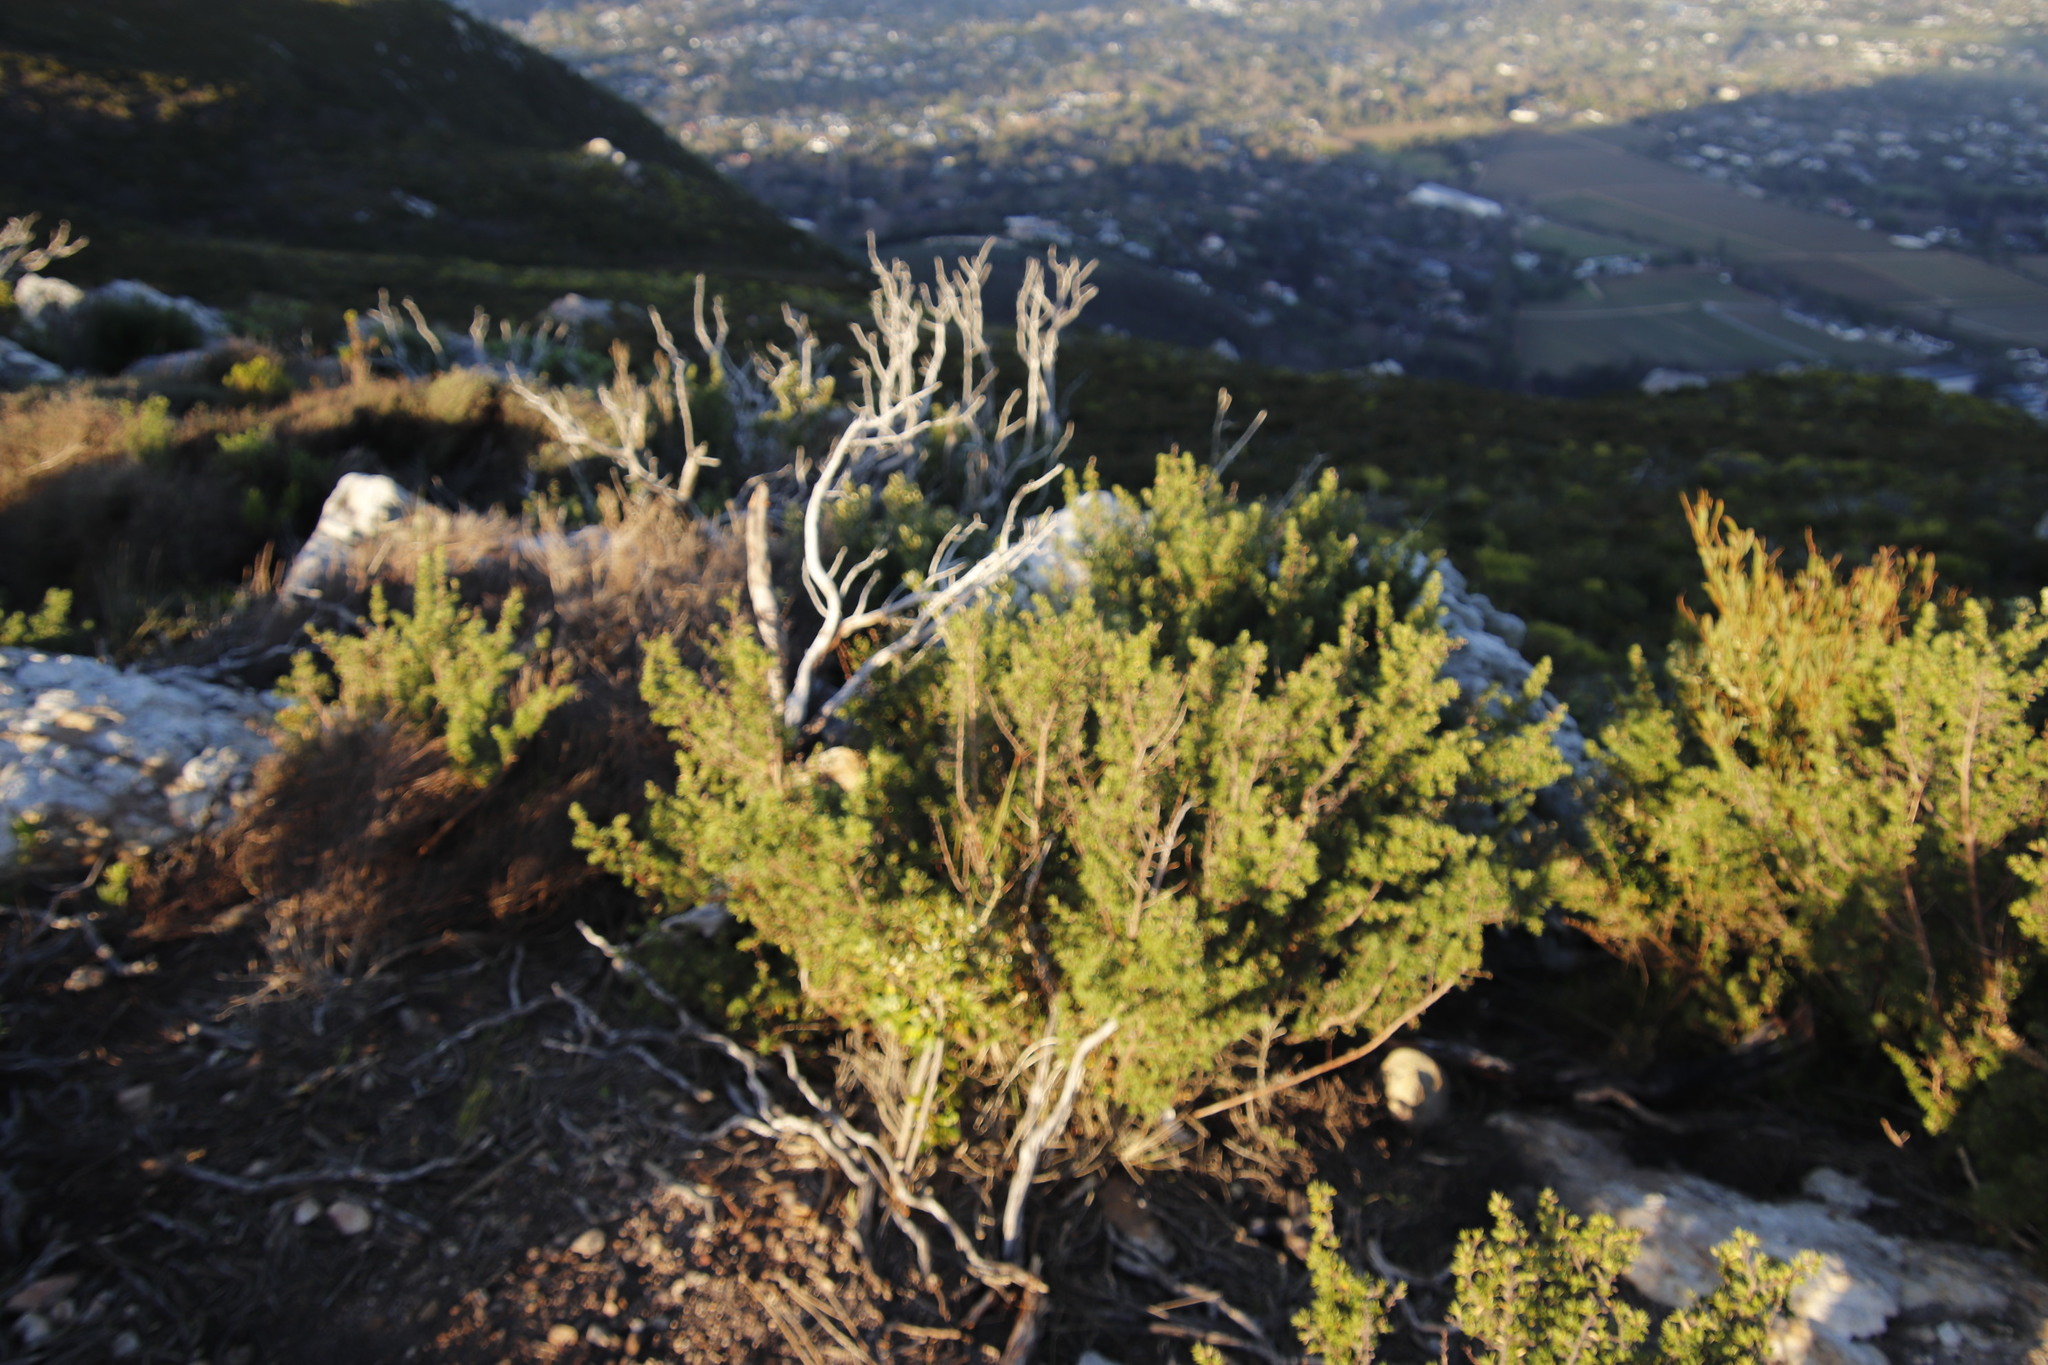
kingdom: Plantae
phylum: Tracheophyta
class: Magnoliopsida
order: Rosales
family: Rosaceae
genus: Cliffortia
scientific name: Cliffortia ruscifolia
